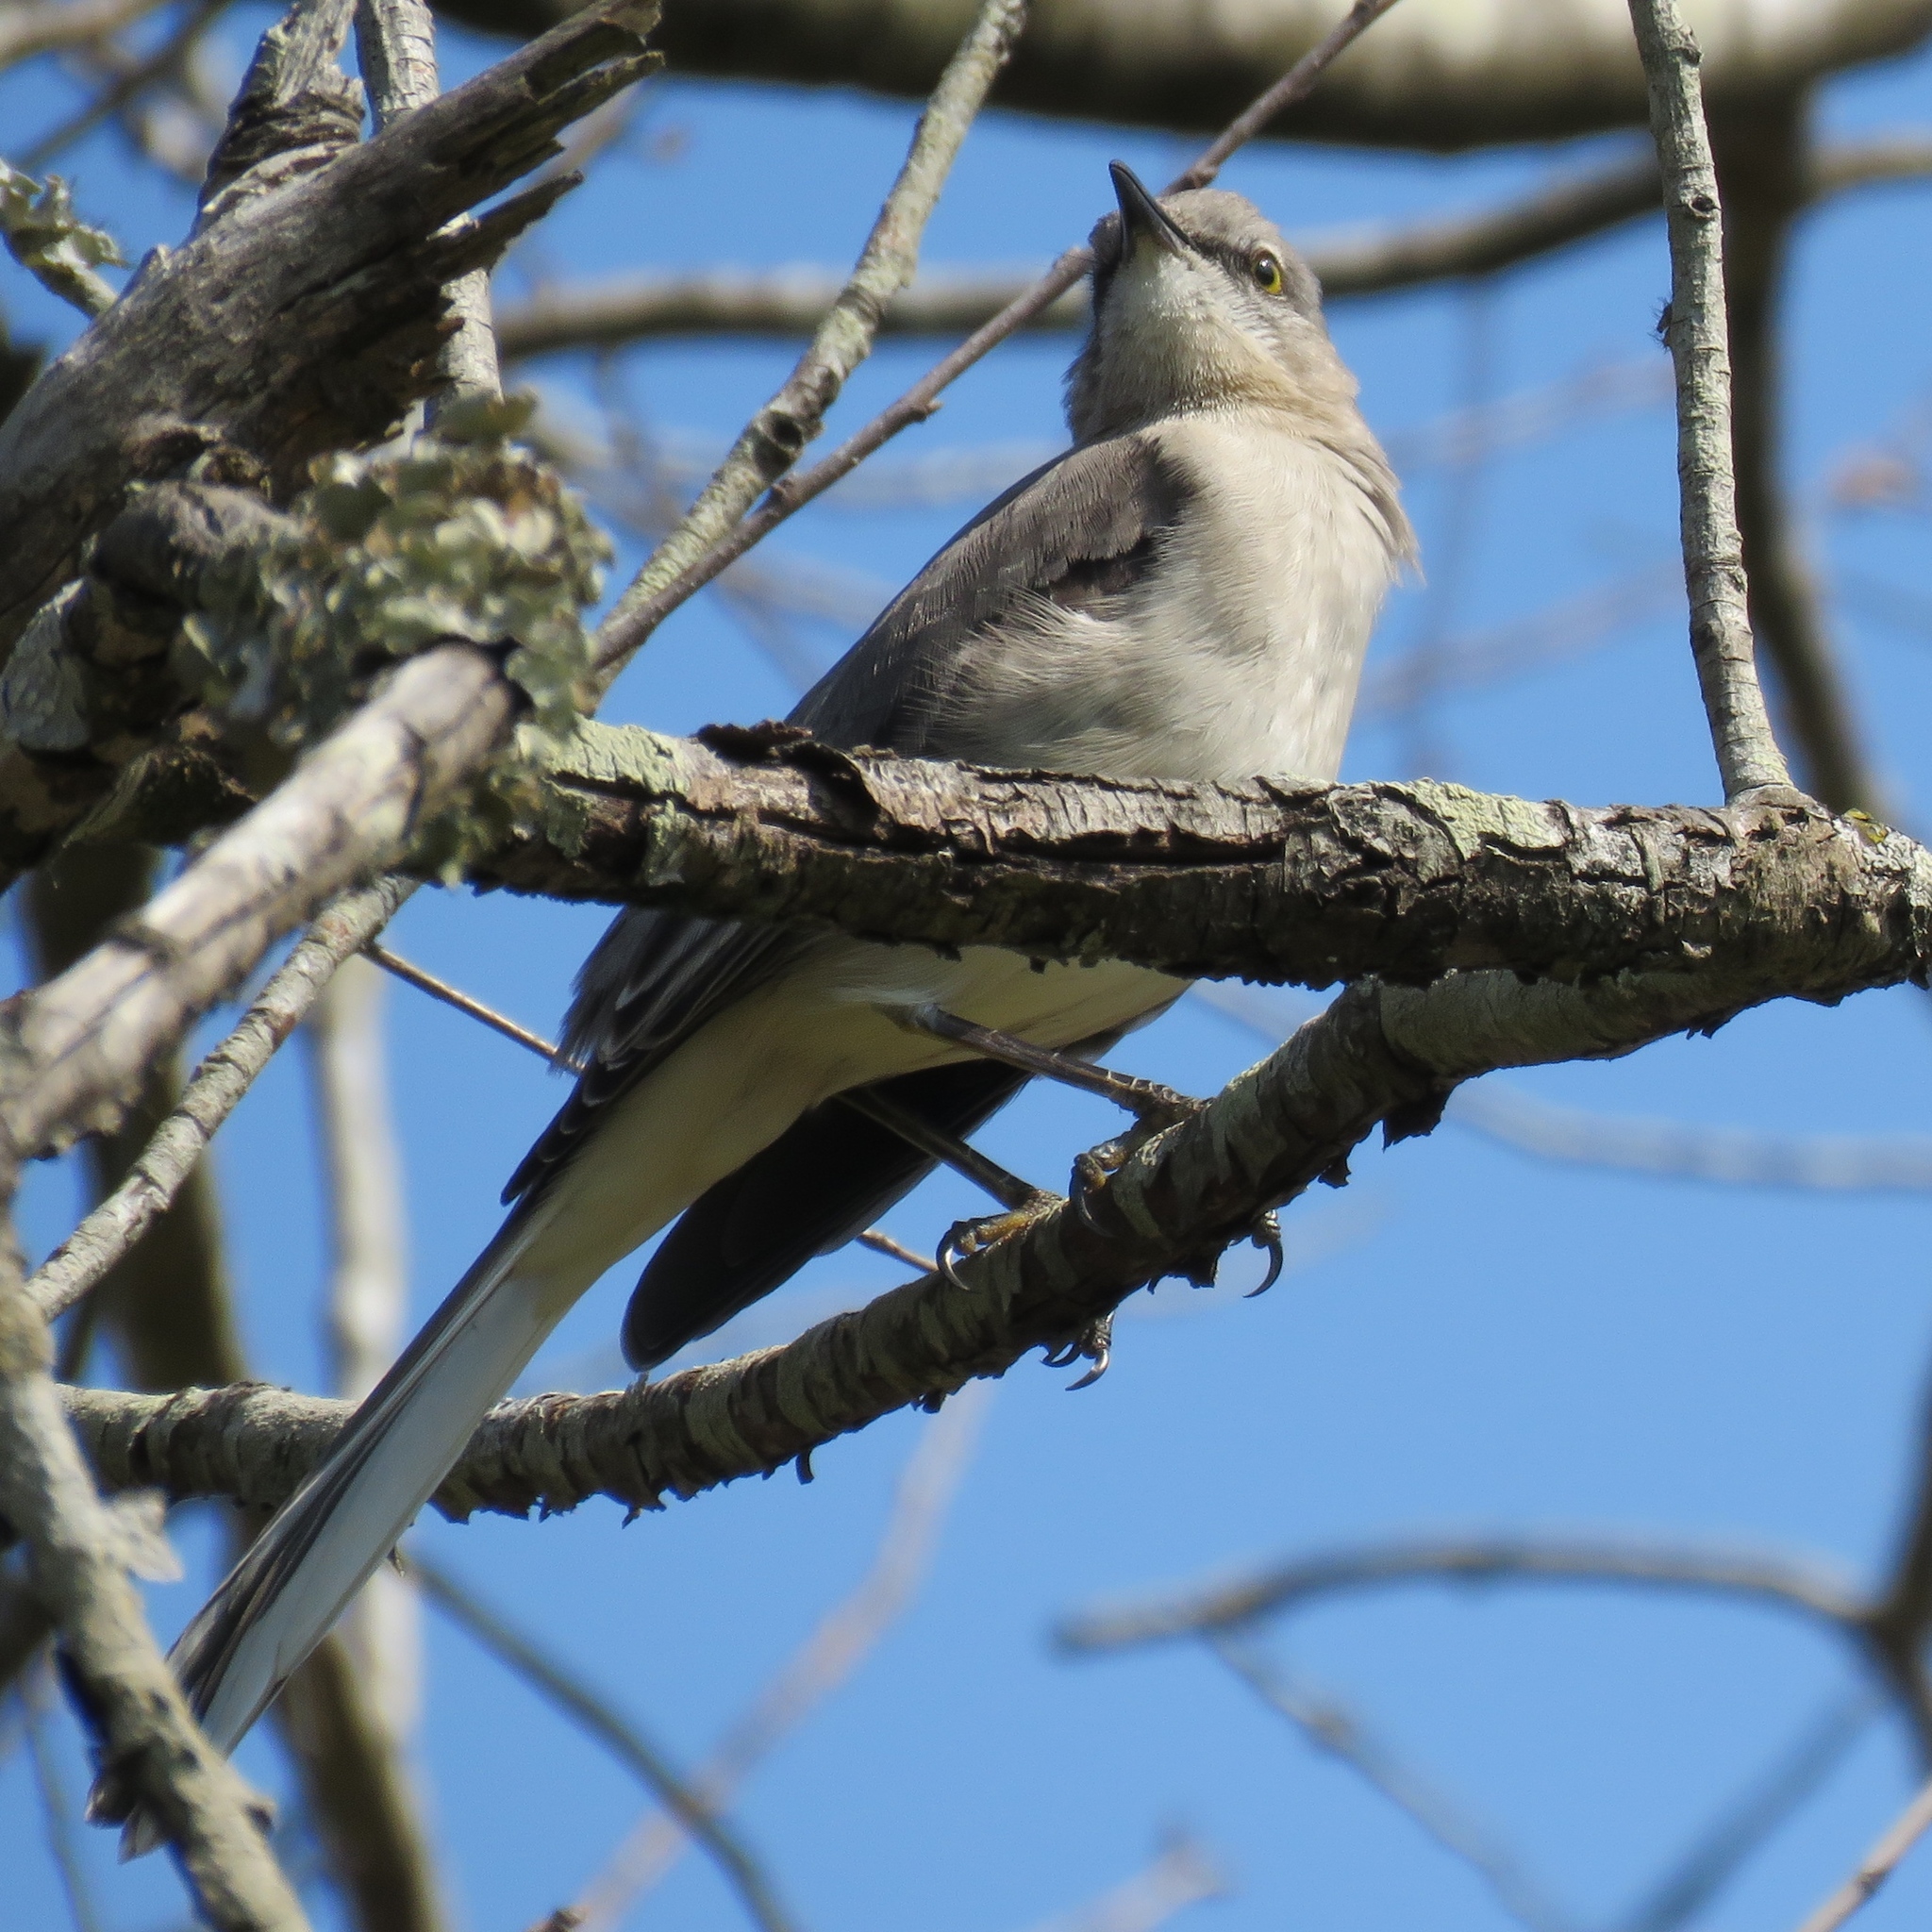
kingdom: Animalia
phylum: Chordata
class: Aves
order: Passeriformes
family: Mimidae
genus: Mimus
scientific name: Mimus polyglottos
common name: Northern mockingbird
